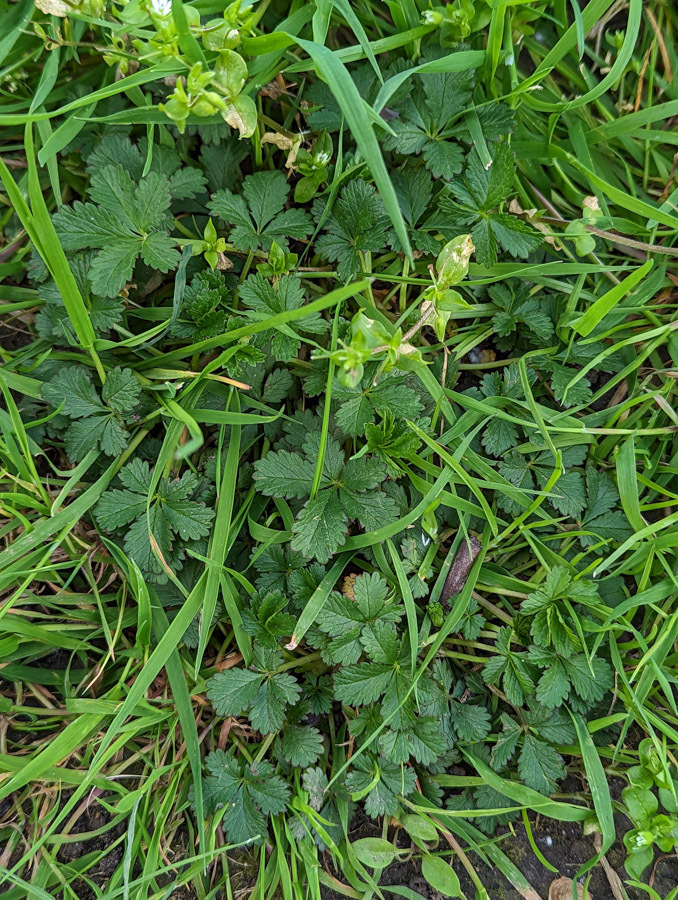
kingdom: Plantae
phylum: Tracheophyta
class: Magnoliopsida
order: Rosales
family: Rosaceae
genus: Potentilla
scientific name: Potentilla reptans
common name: Creeping cinquefoil
